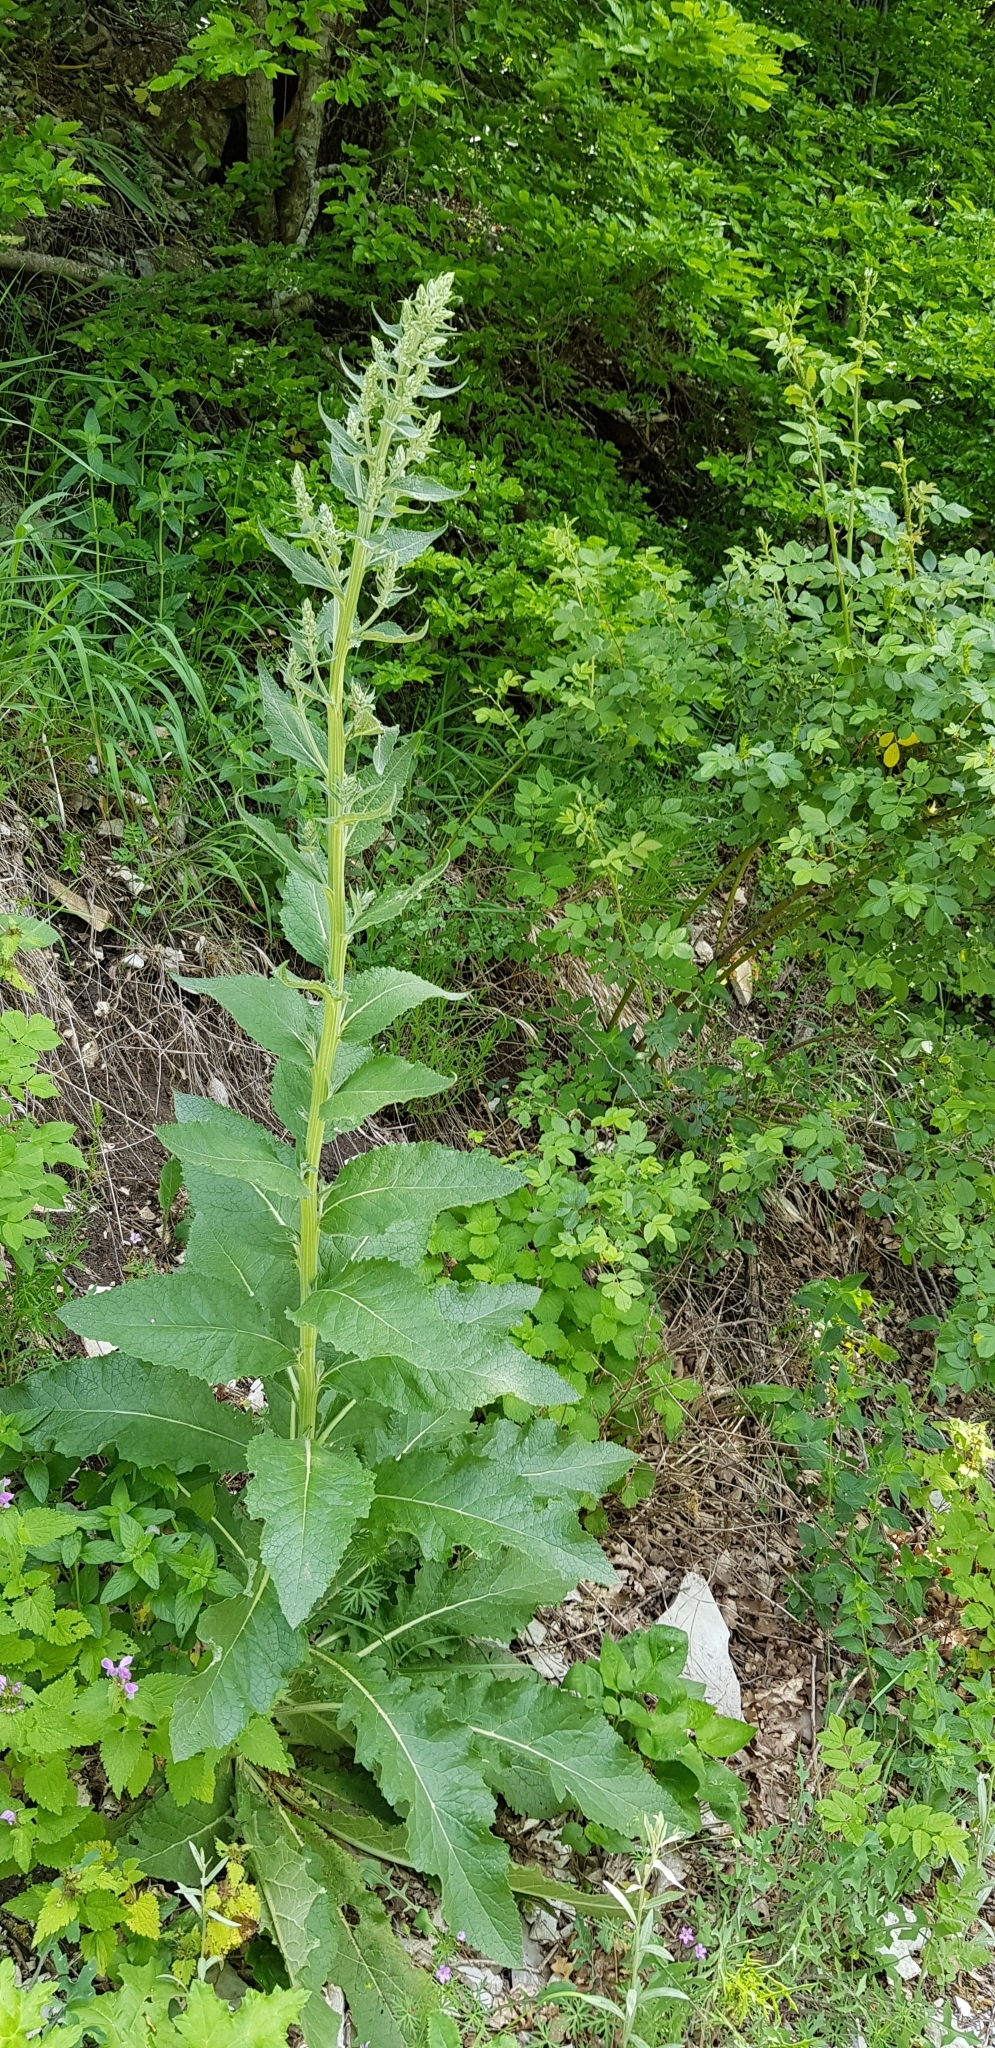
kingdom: Plantae
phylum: Tracheophyta
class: Magnoliopsida
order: Lamiales
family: Scrophulariaceae
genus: Verbascum
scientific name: Verbascum lychnitis
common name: White mullein
